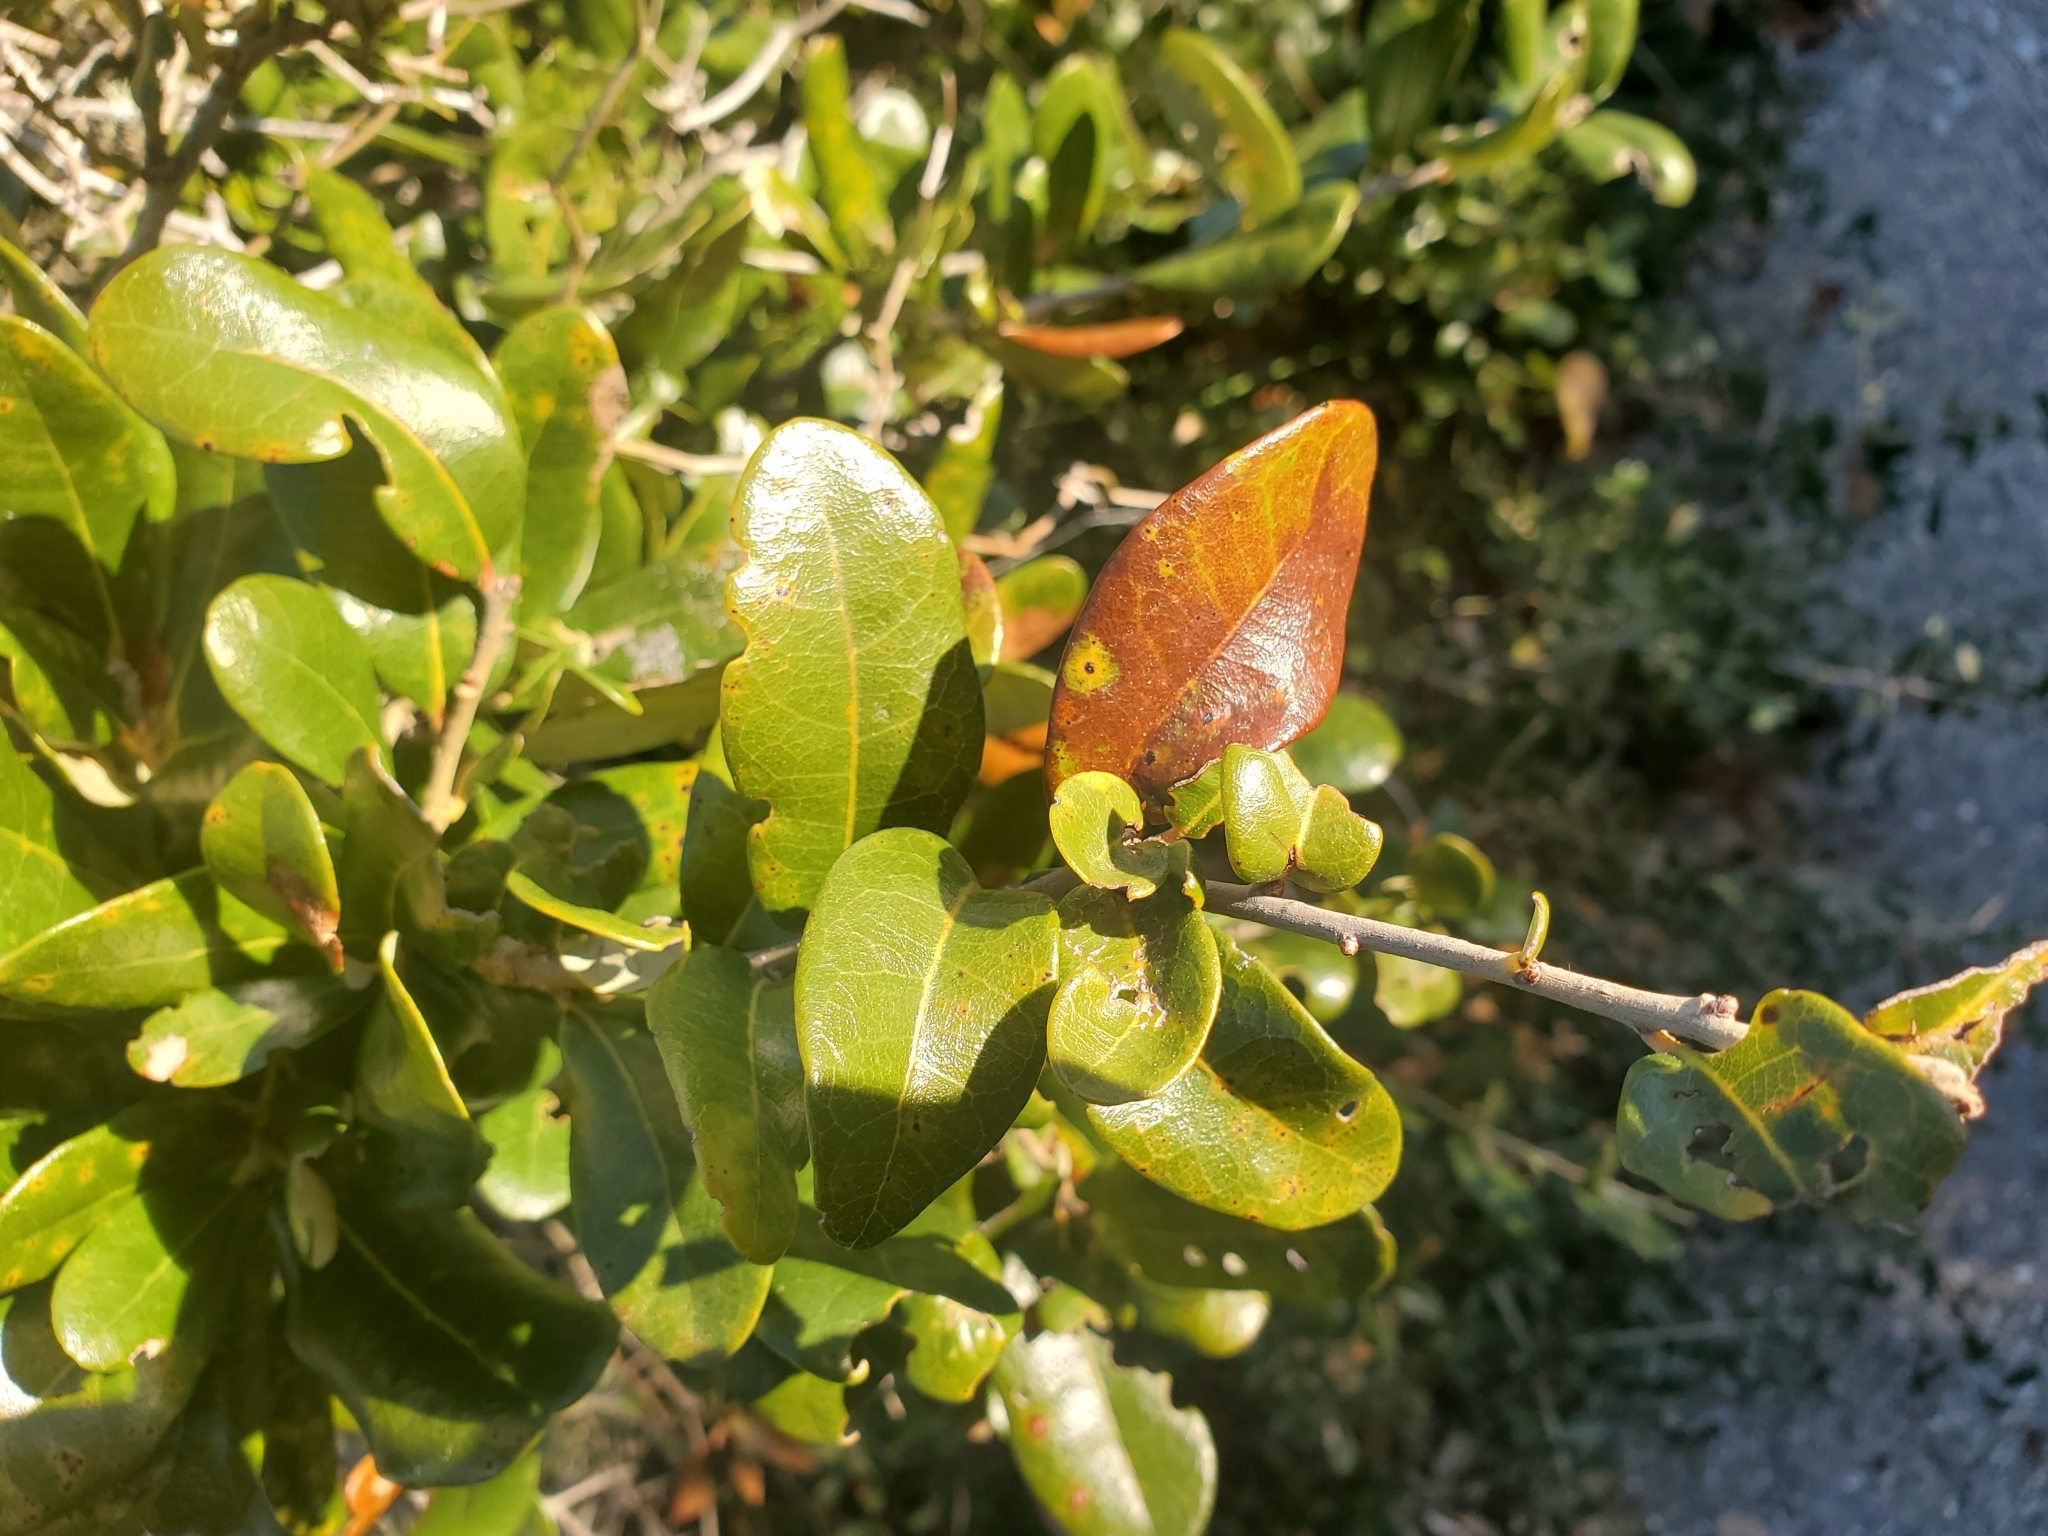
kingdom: Plantae
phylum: Tracheophyta
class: Magnoliopsida
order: Fagales
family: Fagaceae
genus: Quercus
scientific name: Quercus virginiana
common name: Southern live oak
